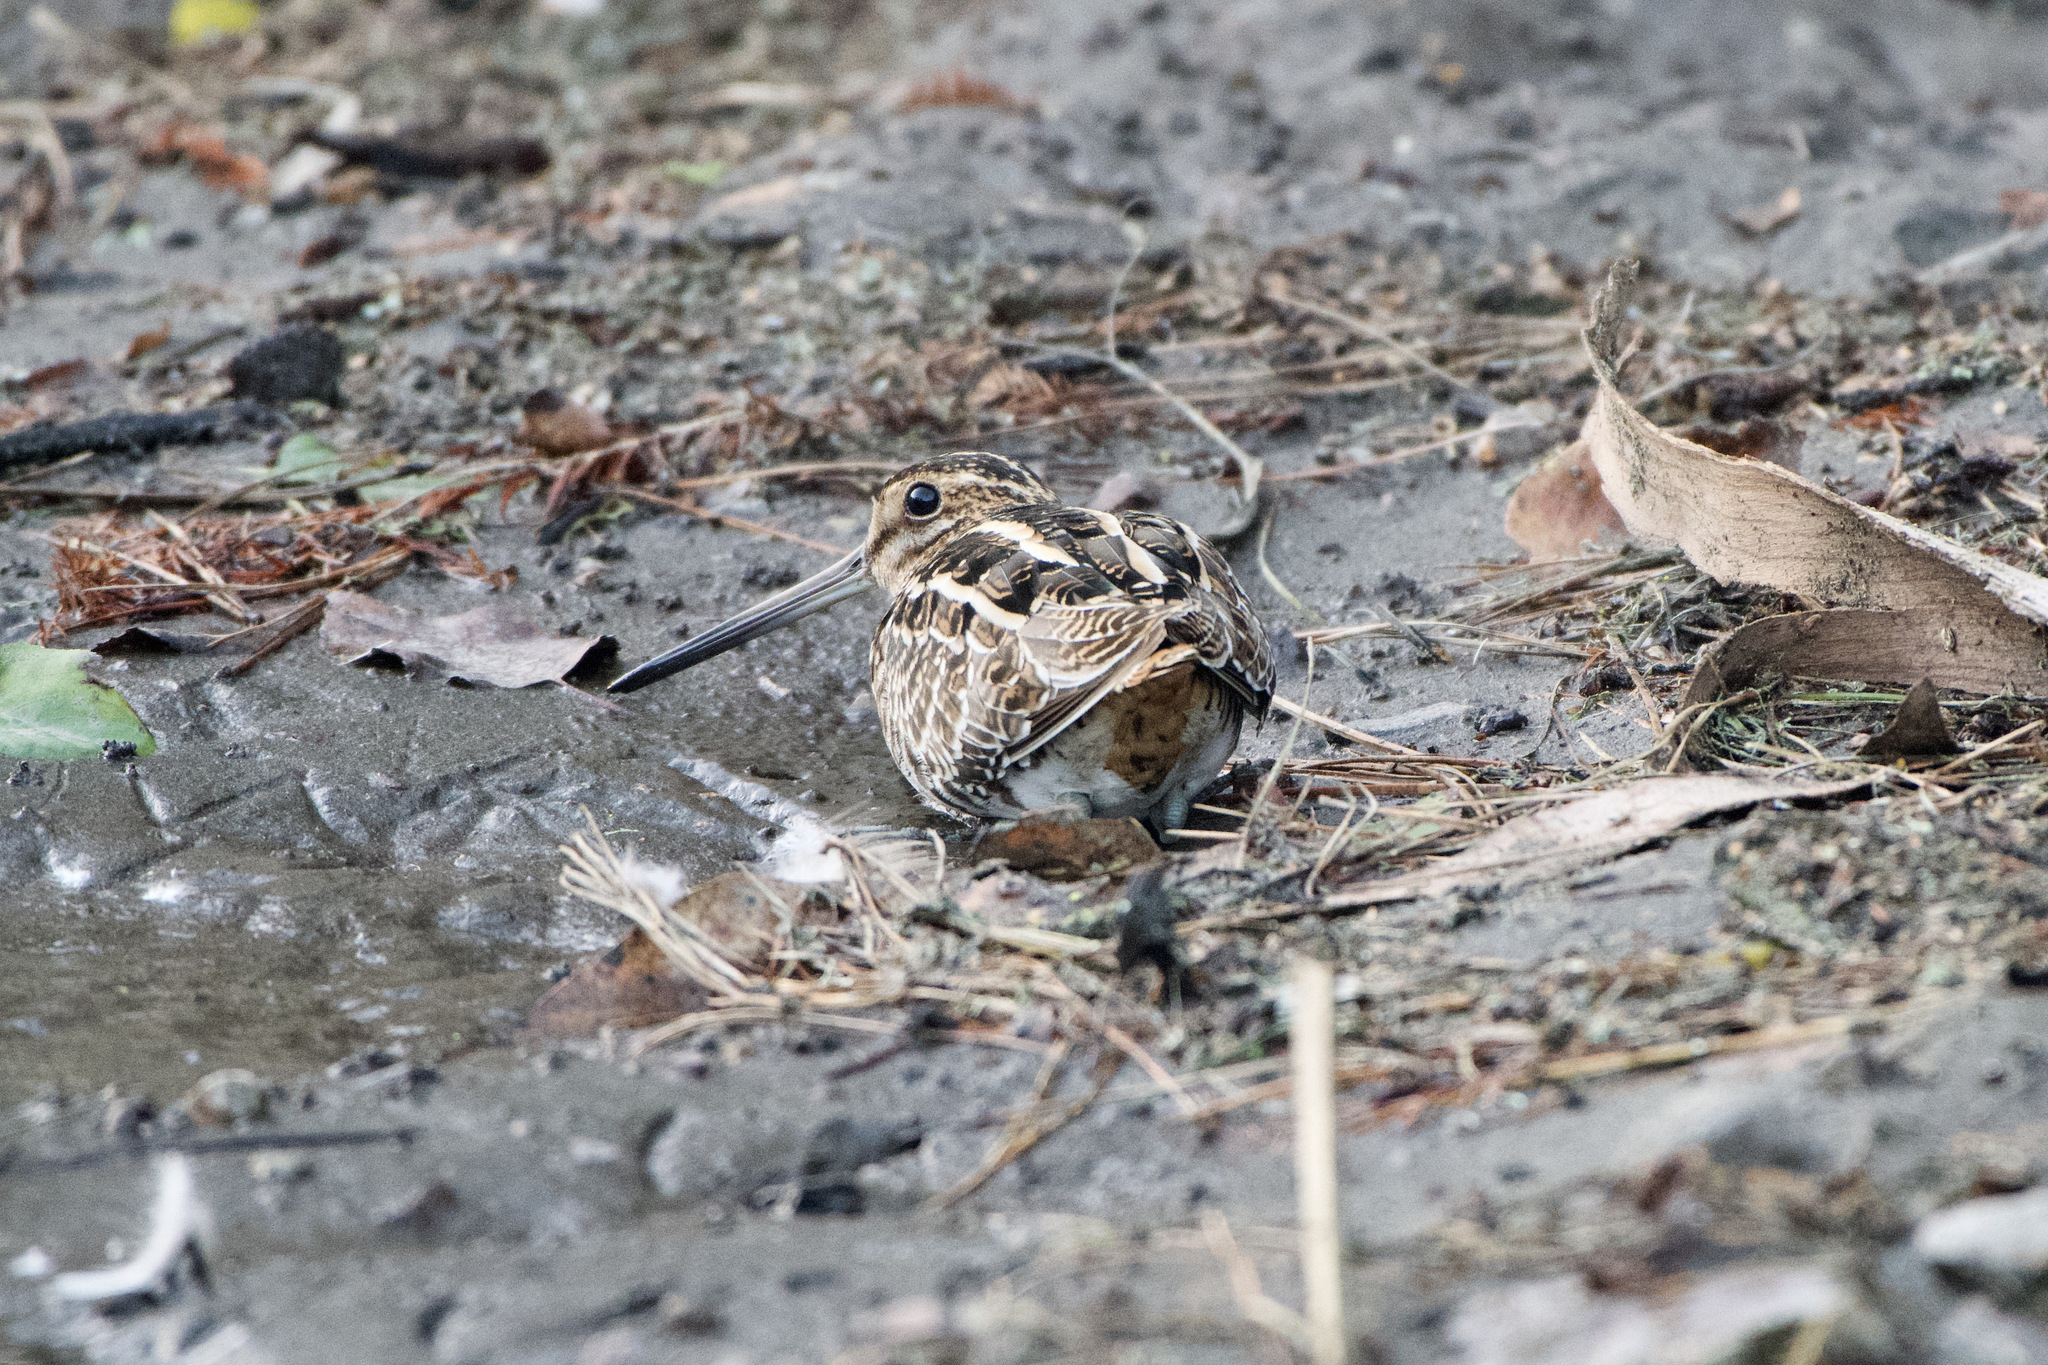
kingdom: Animalia
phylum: Chordata
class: Aves
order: Charadriiformes
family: Scolopacidae
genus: Gallinago
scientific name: Gallinago delicata
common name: Wilson's snipe
